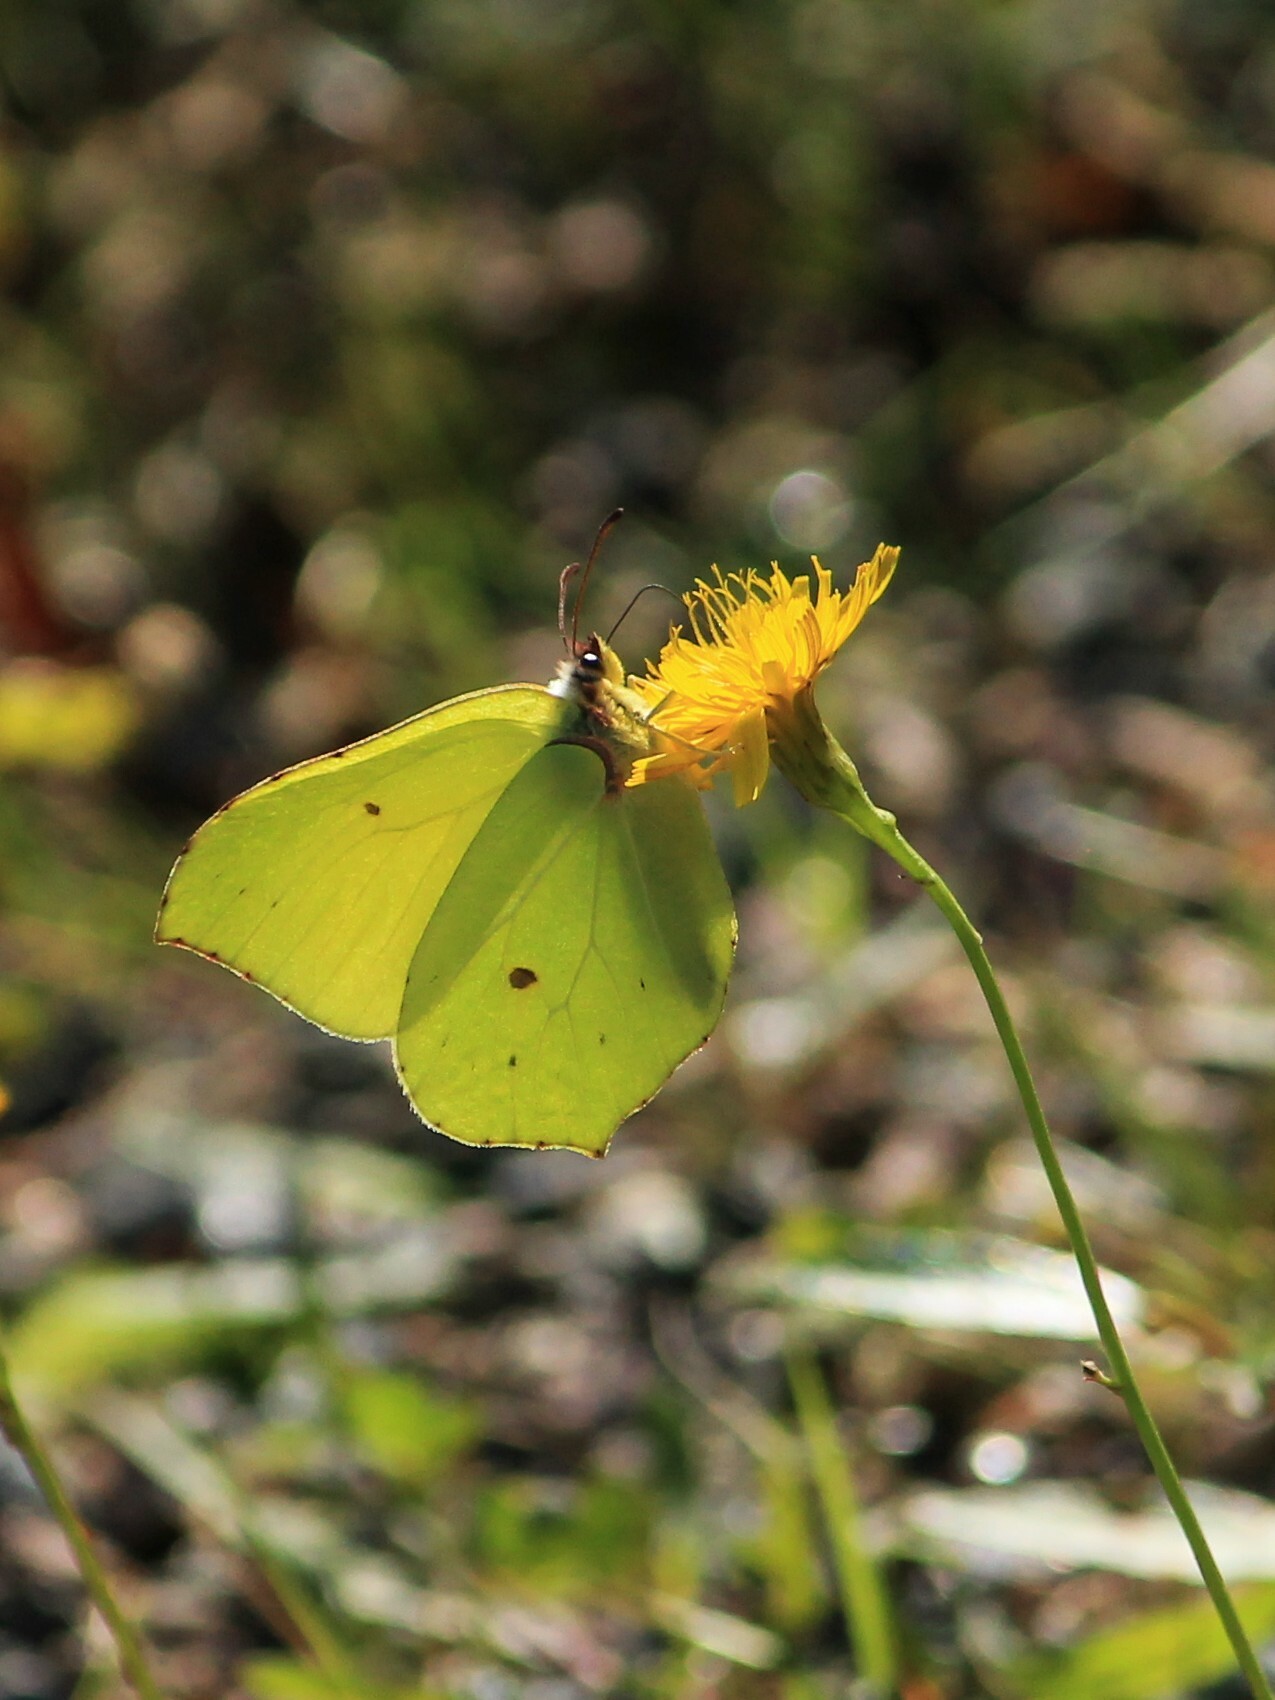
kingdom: Animalia
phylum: Arthropoda
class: Insecta
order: Lepidoptera
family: Pieridae
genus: Gonepteryx
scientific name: Gonepteryx rhamni
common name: Brimstone
